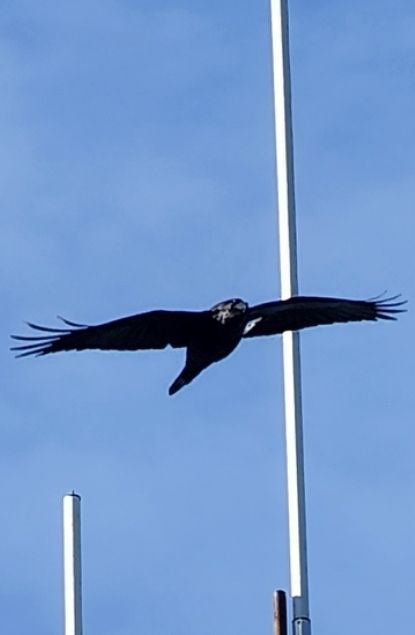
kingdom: Animalia
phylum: Chordata
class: Aves
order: Passeriformes
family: Corvidae
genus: Corvus
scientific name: Corvus corax
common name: Common raven
